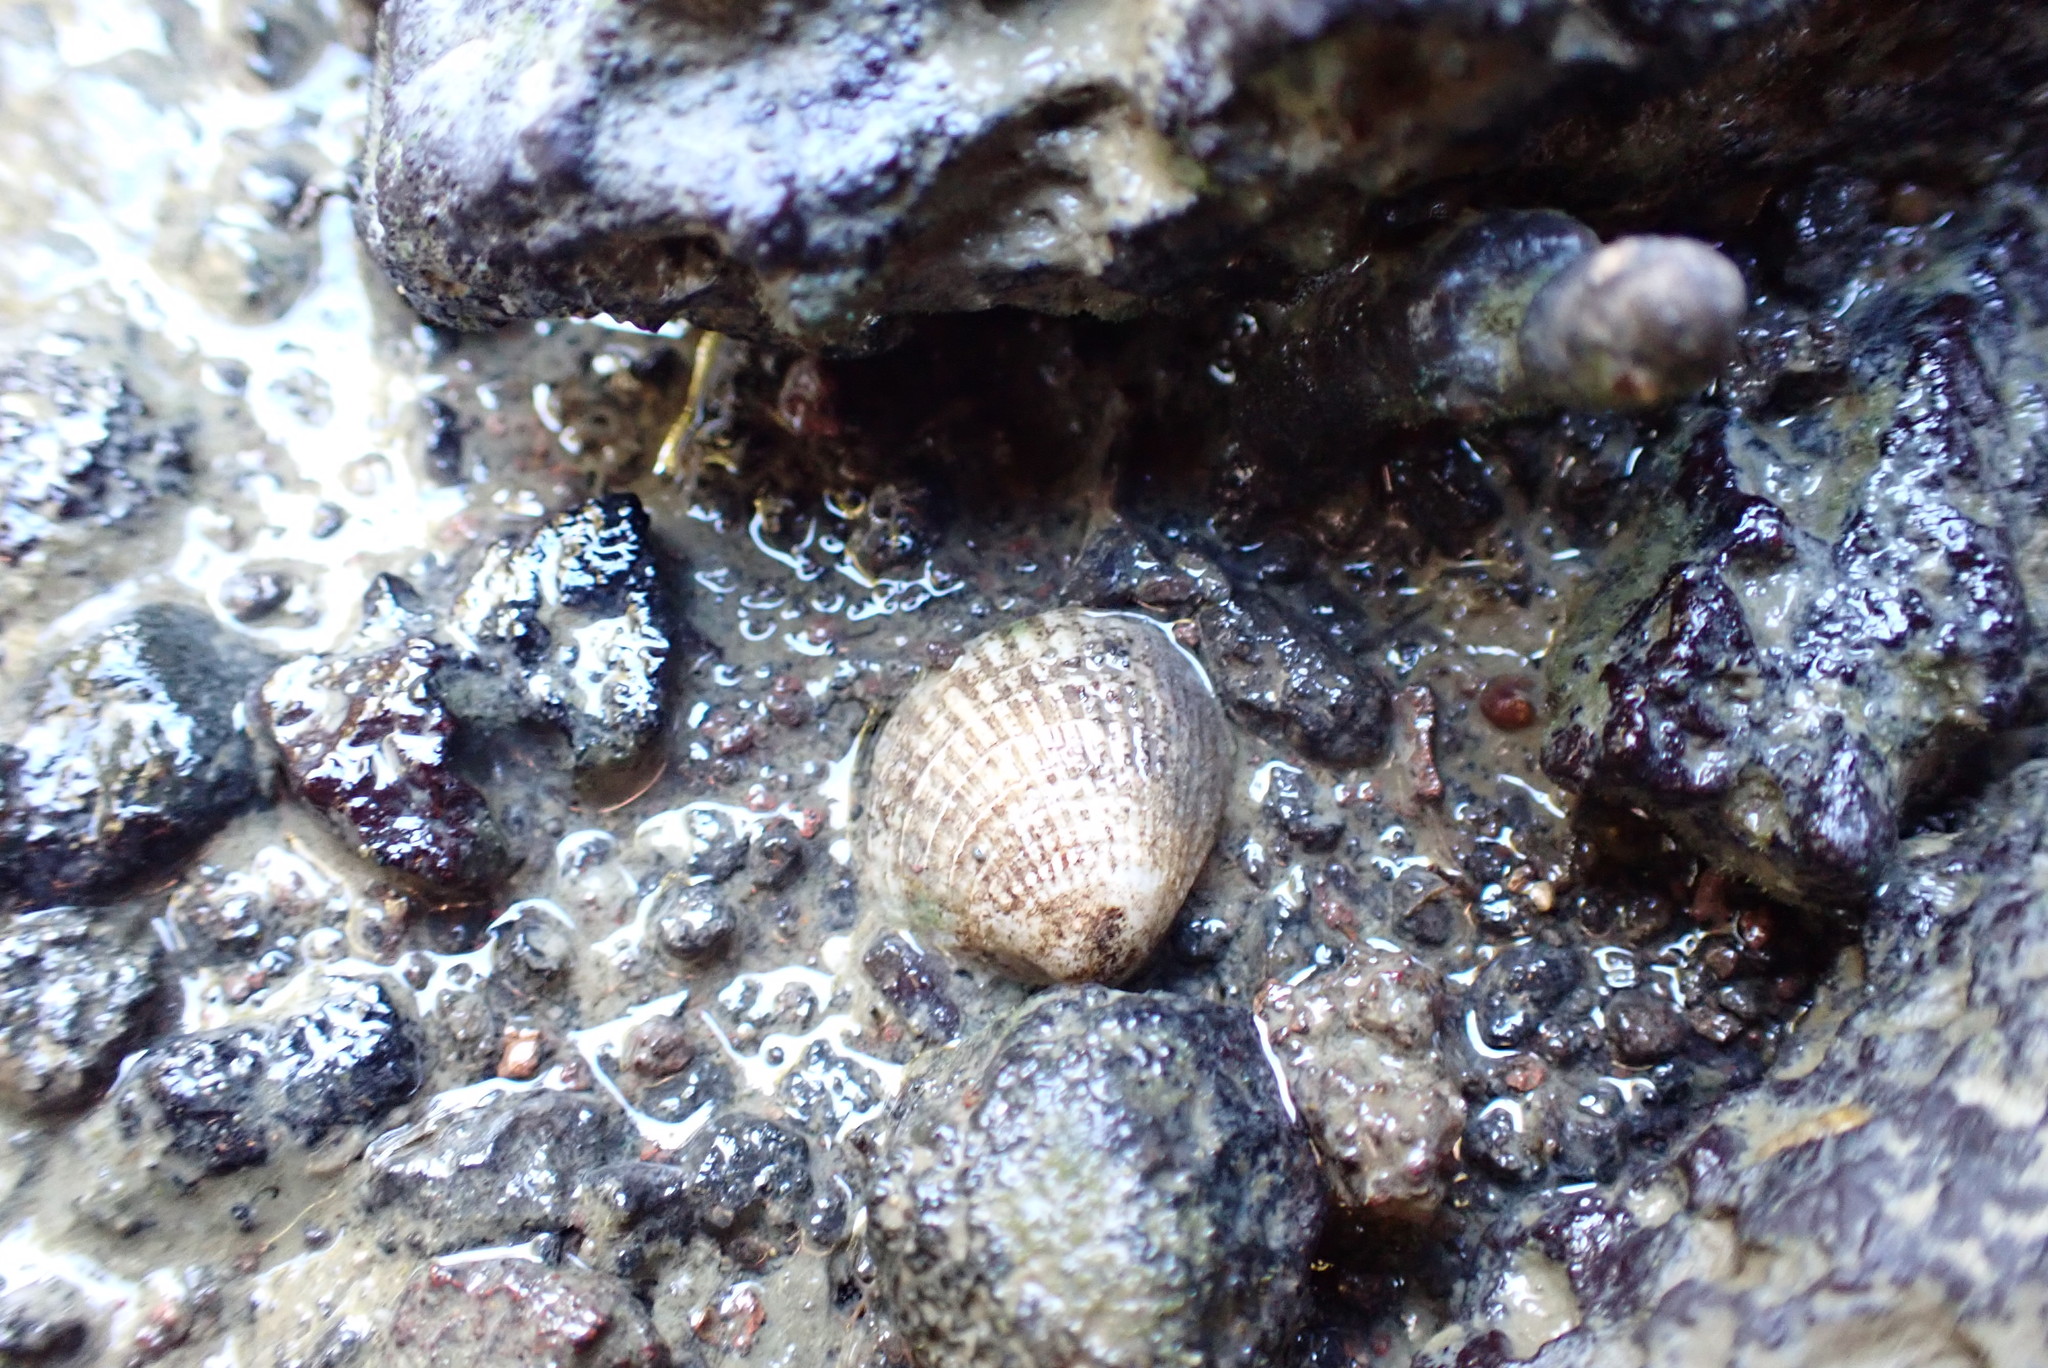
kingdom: Animalia
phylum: Mollusca
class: Bivalvia
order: Venerida
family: Veneridae
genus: Austrovenus
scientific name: Austrovenus stutchburyi
